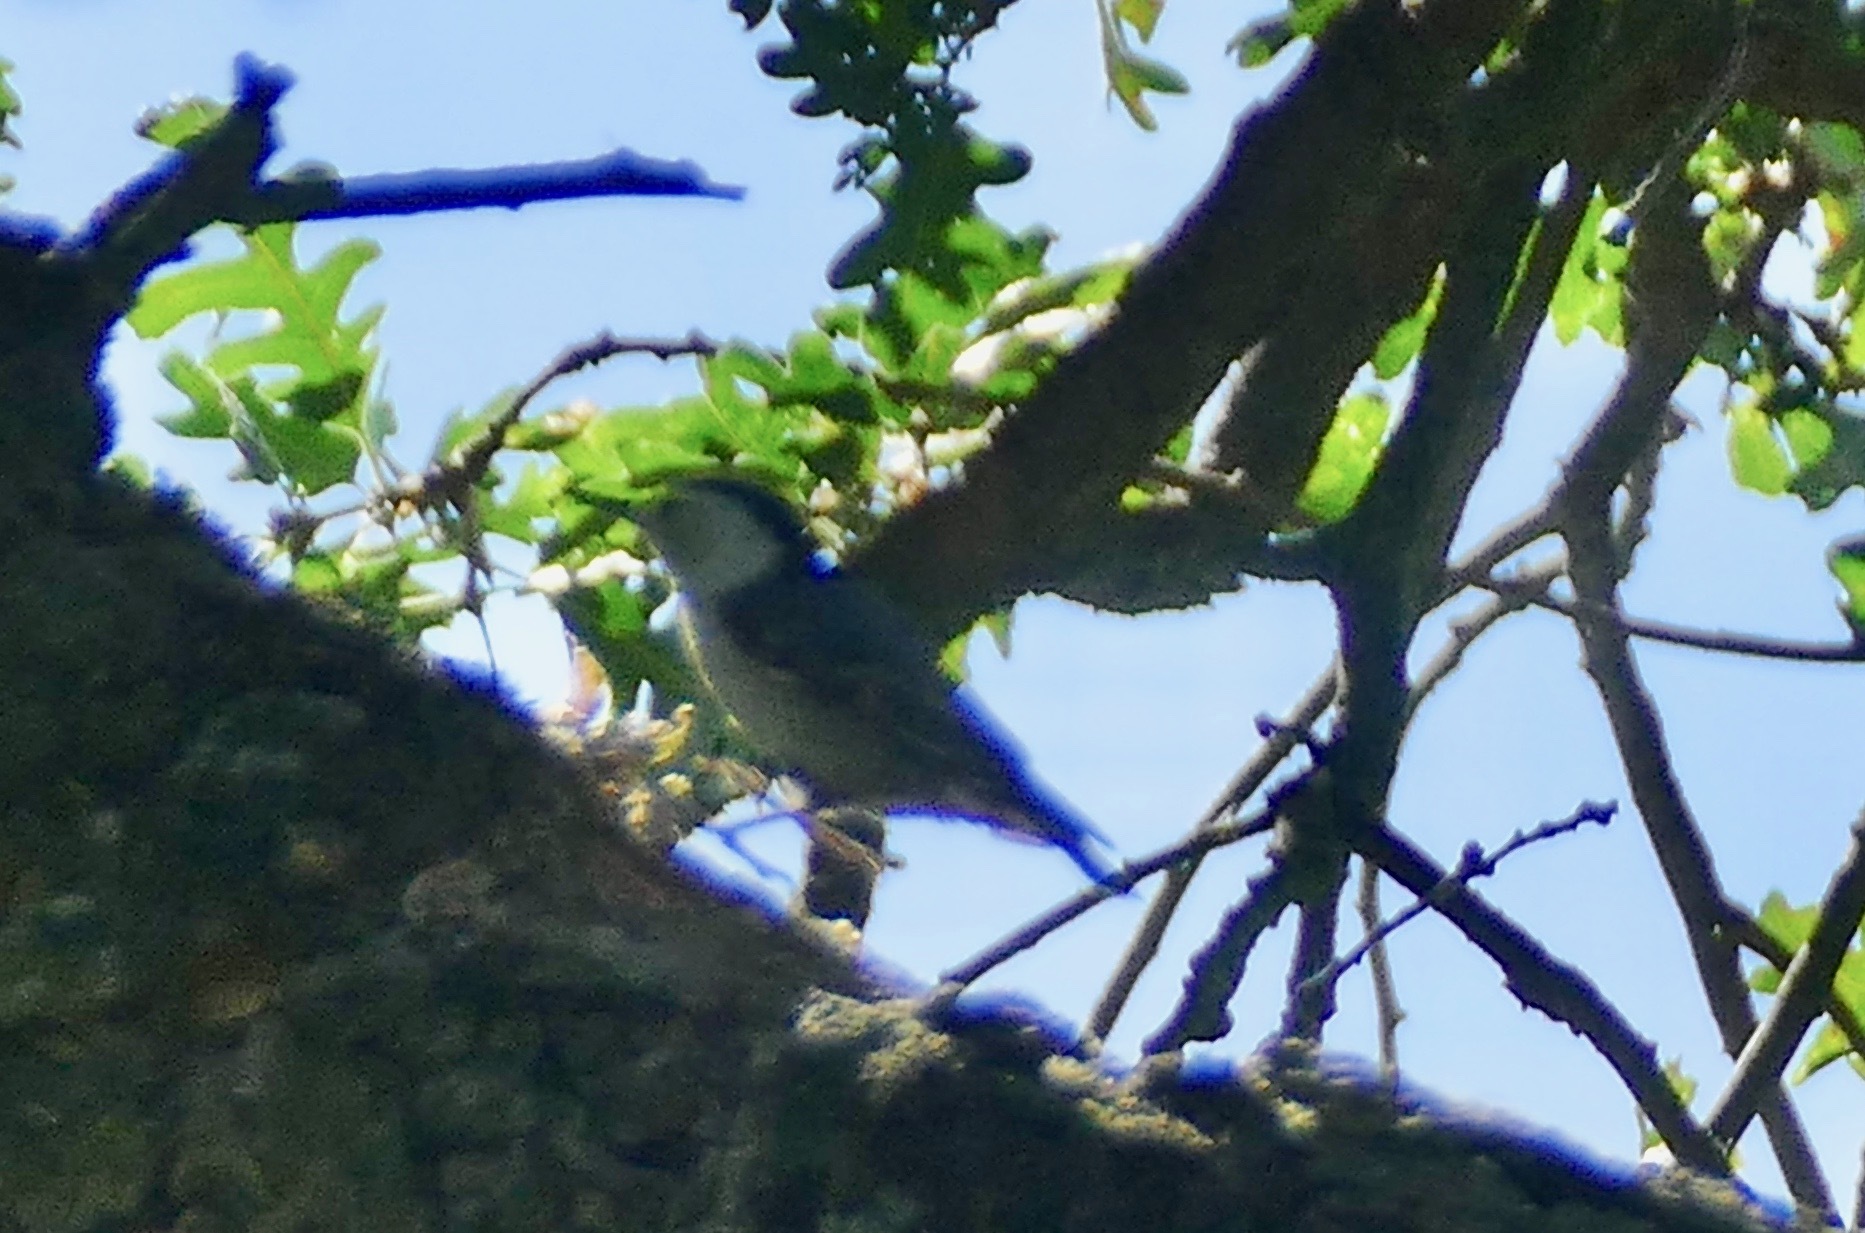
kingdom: Animalia
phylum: Chordata
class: Aves
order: Passeriformes
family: Sittidae
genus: Sitta
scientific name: Sitta carolinensis
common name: White-breasted nuthatch
